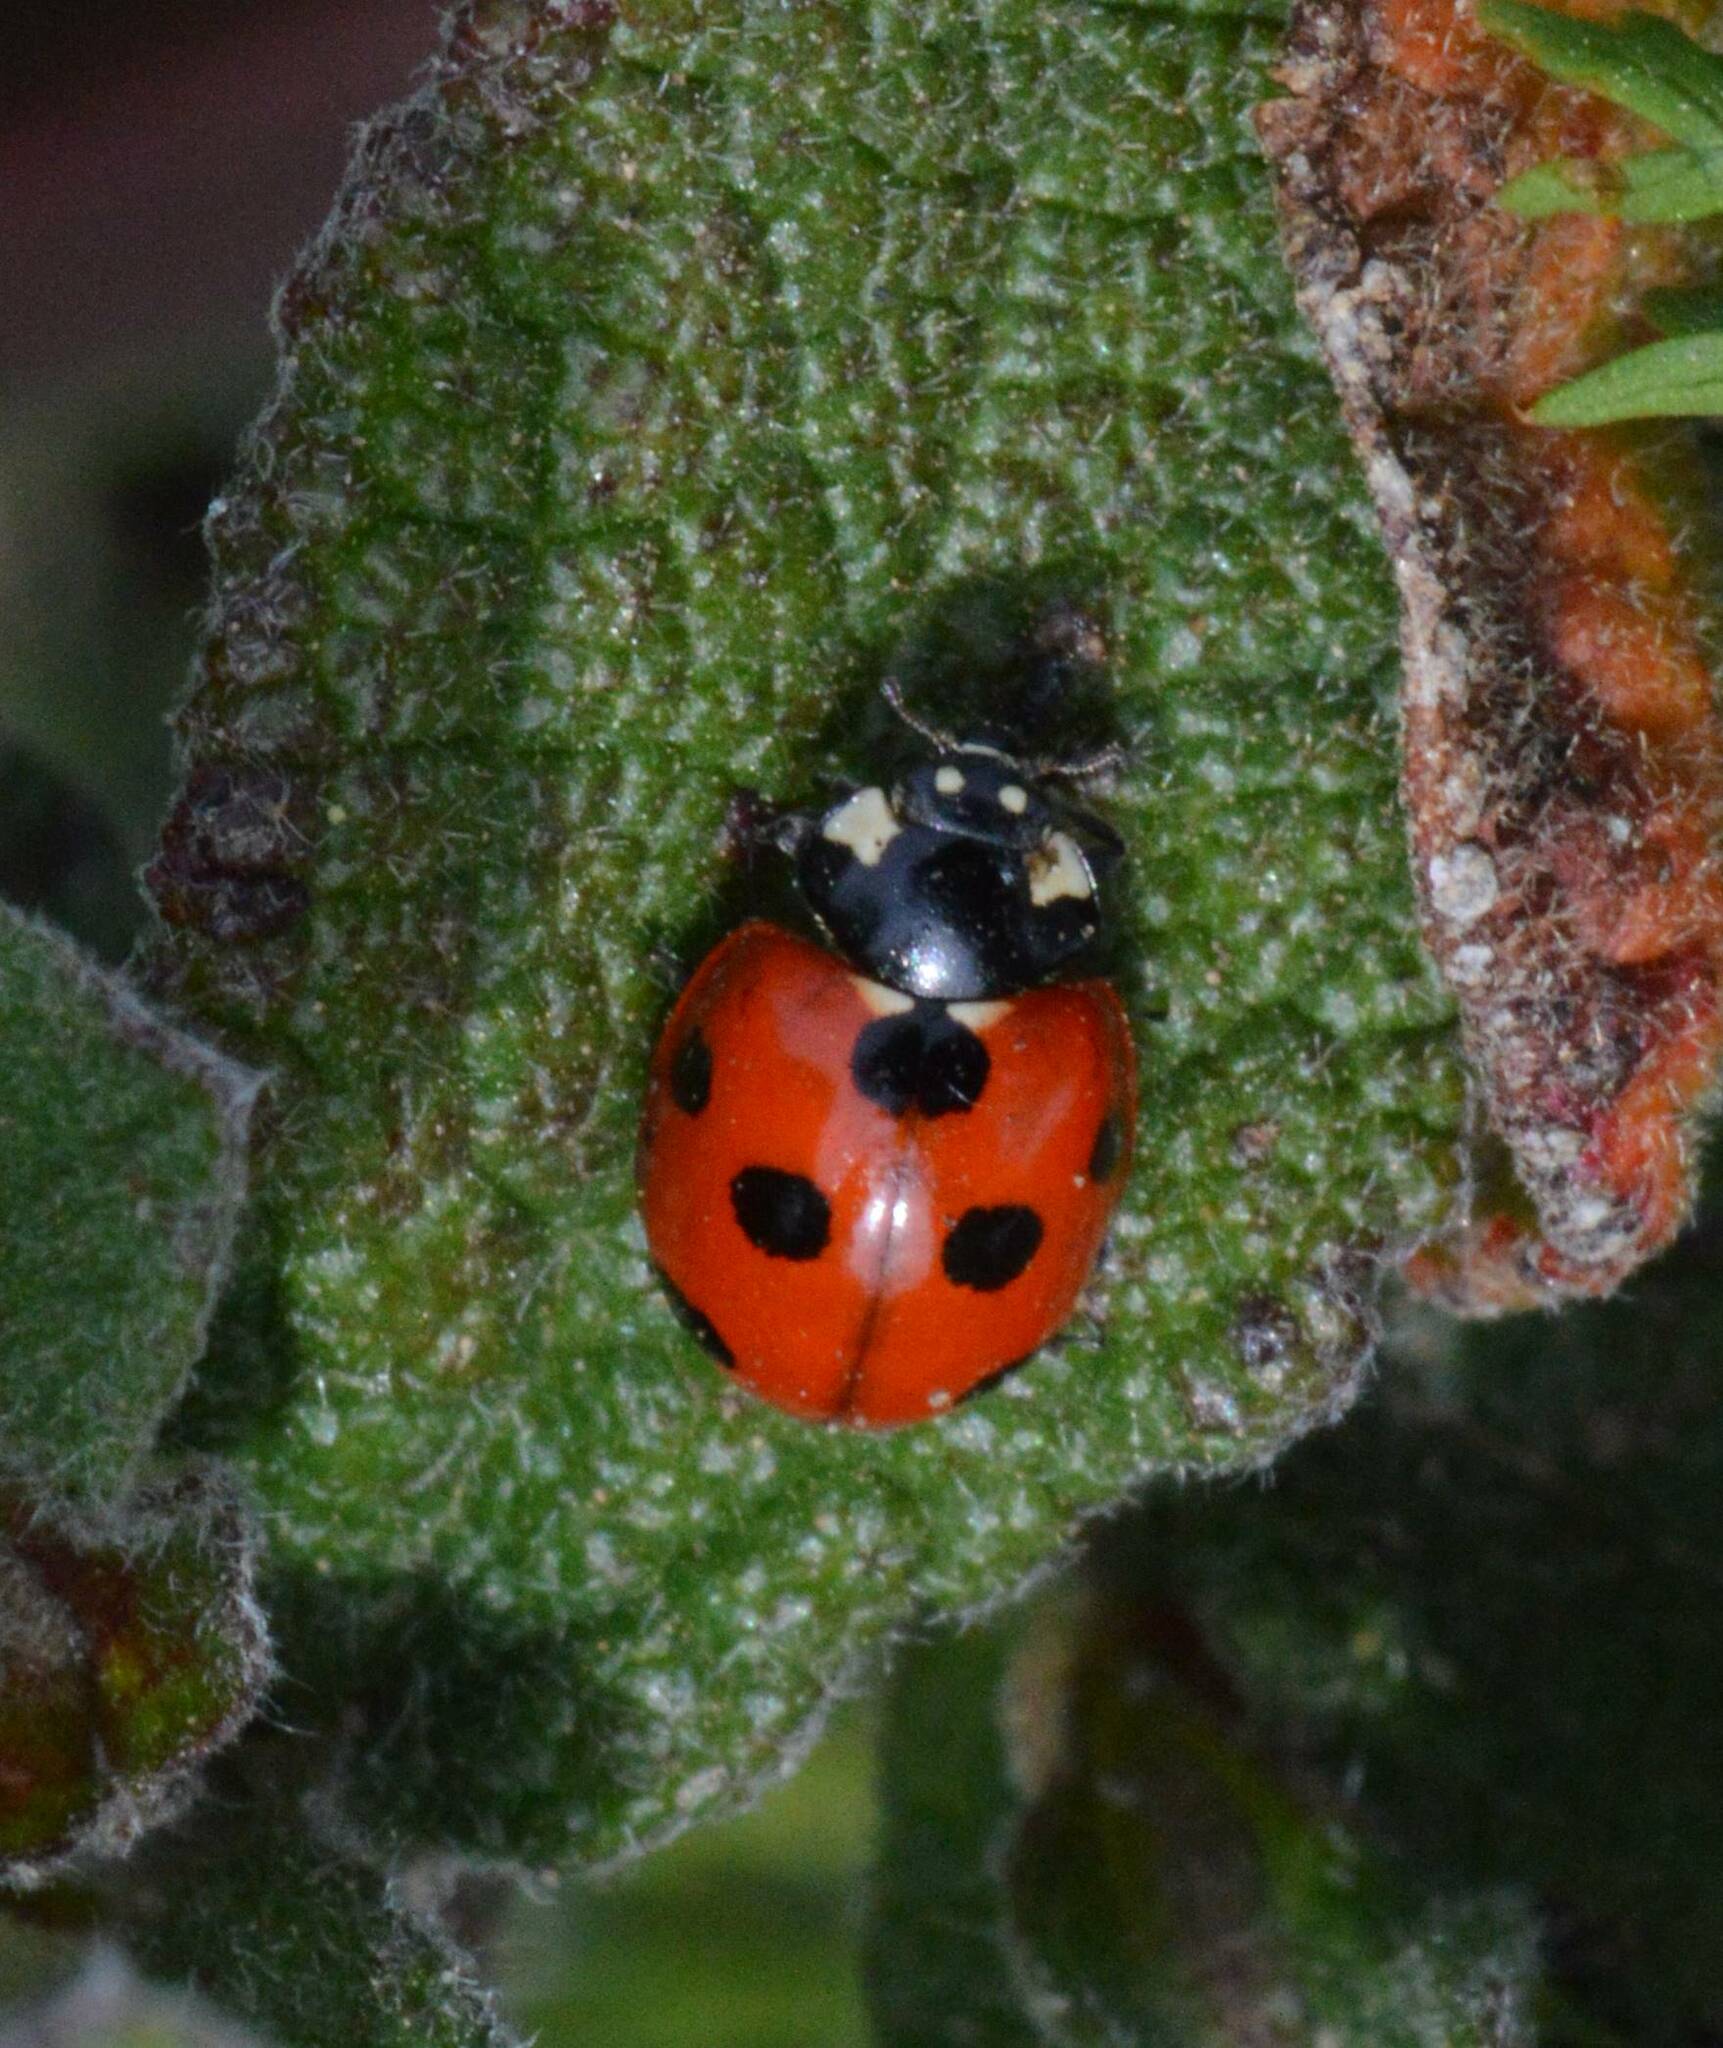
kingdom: Animalia
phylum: Arthropoda
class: Insecta
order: Coleoptera
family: Coccinellidae
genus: Coccinella
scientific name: Coccinella algerica
